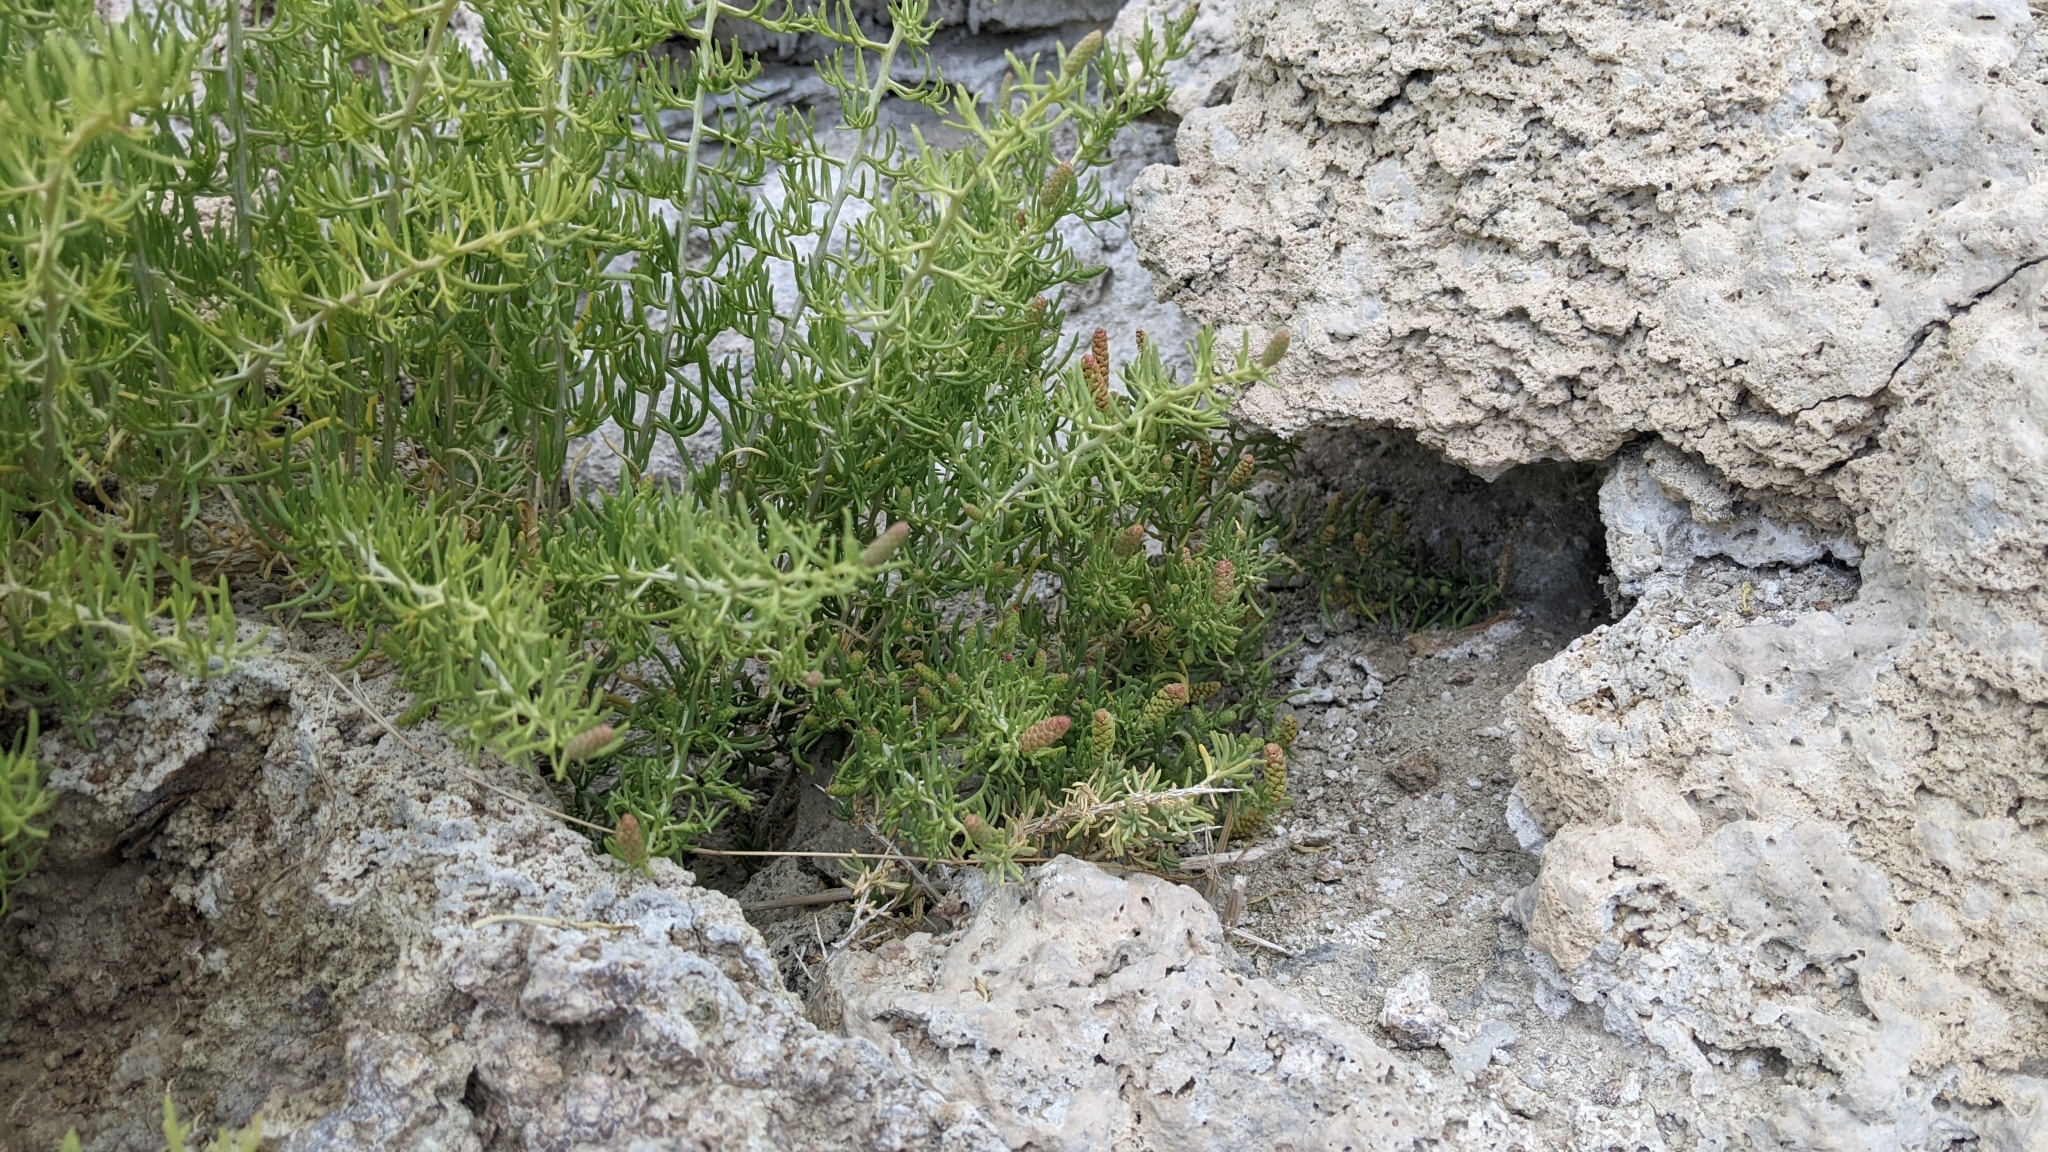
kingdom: Plantae
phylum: Tracheophyta
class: Magnoliopsida
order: Caryophyllales
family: Sarcobataceae
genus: Sarcobatus
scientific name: Sarcobatus vermiculatus
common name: Greasewood
